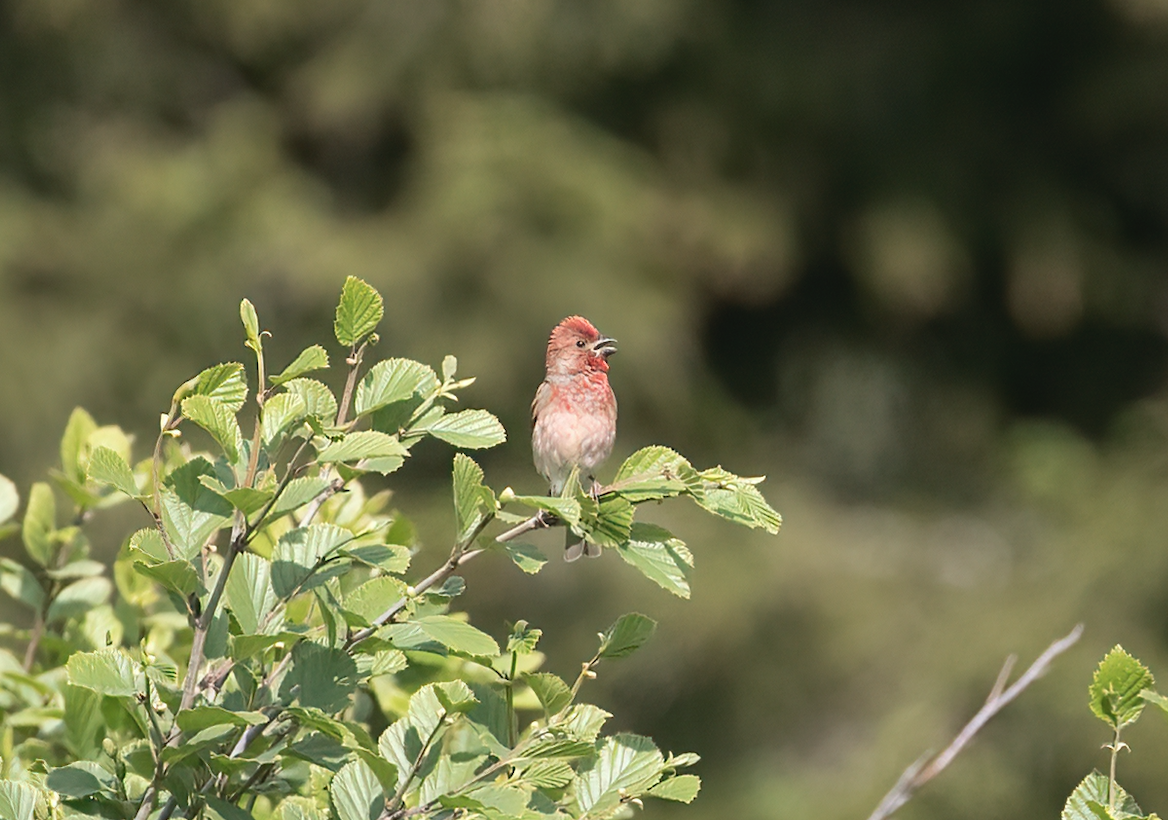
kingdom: Animalia
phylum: Chordata
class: Aves
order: Passeriformes
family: Fringillidae
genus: Carpodacus
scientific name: Carpodacus erythrinus
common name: Common rosefinch
